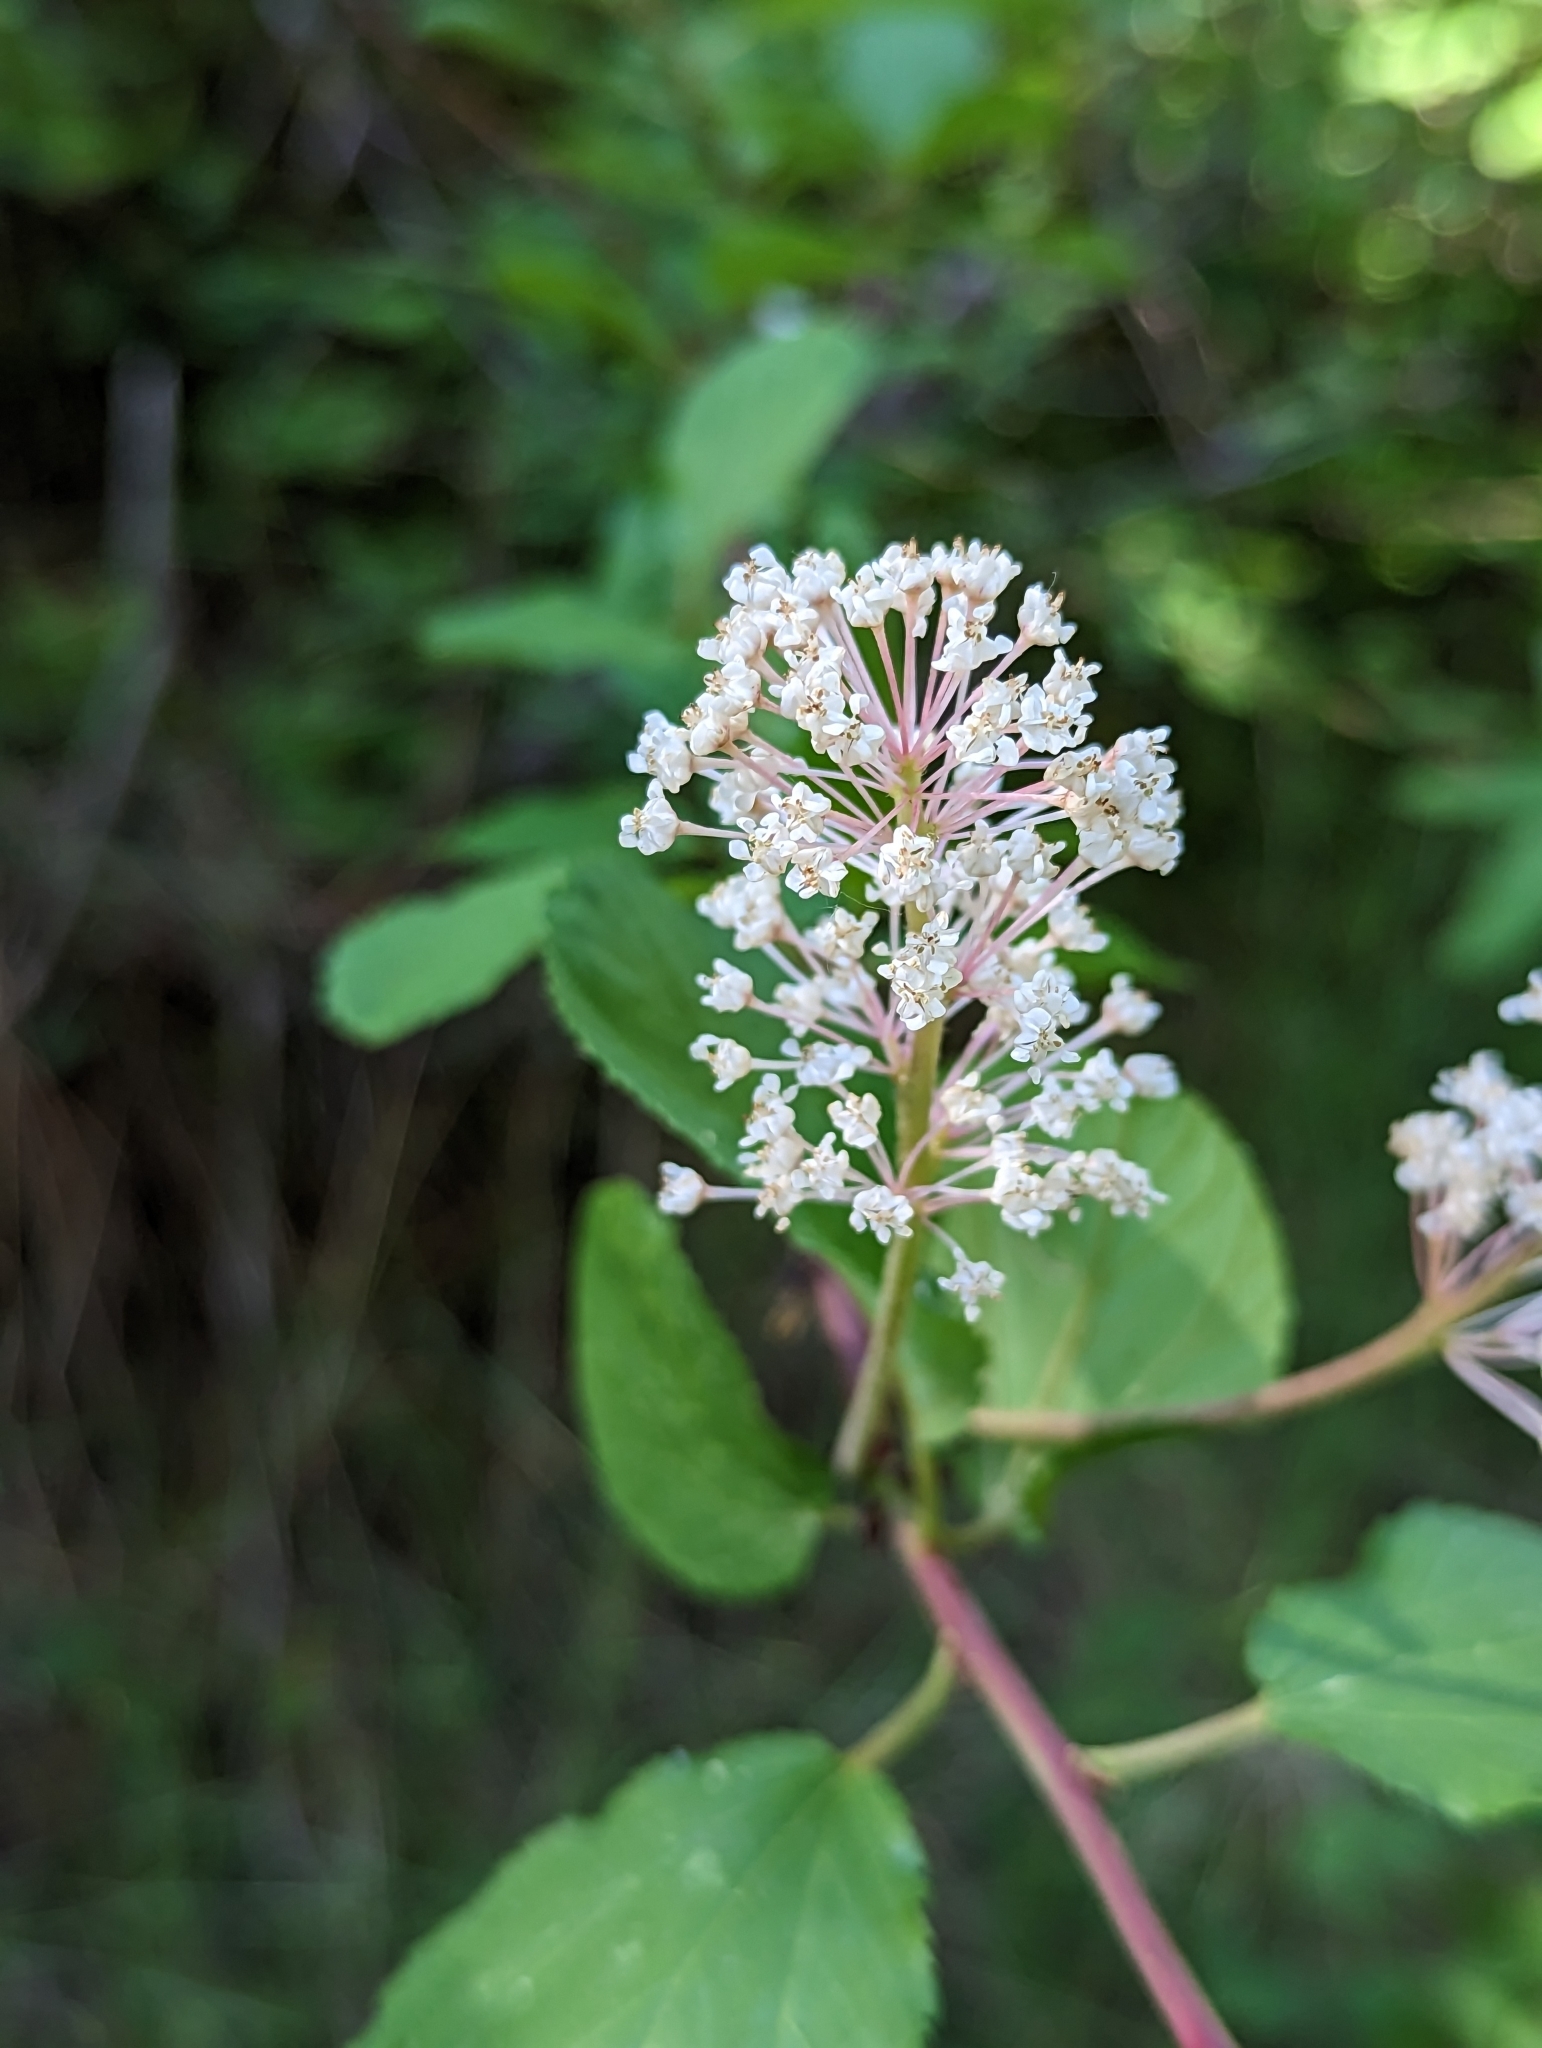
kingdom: Plantae
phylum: Tracheophyta
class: Magnoliopsida
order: Rosales
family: Rhamnaceae
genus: Ceanothus
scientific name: Ceanothus sanguineus
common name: Teatree
